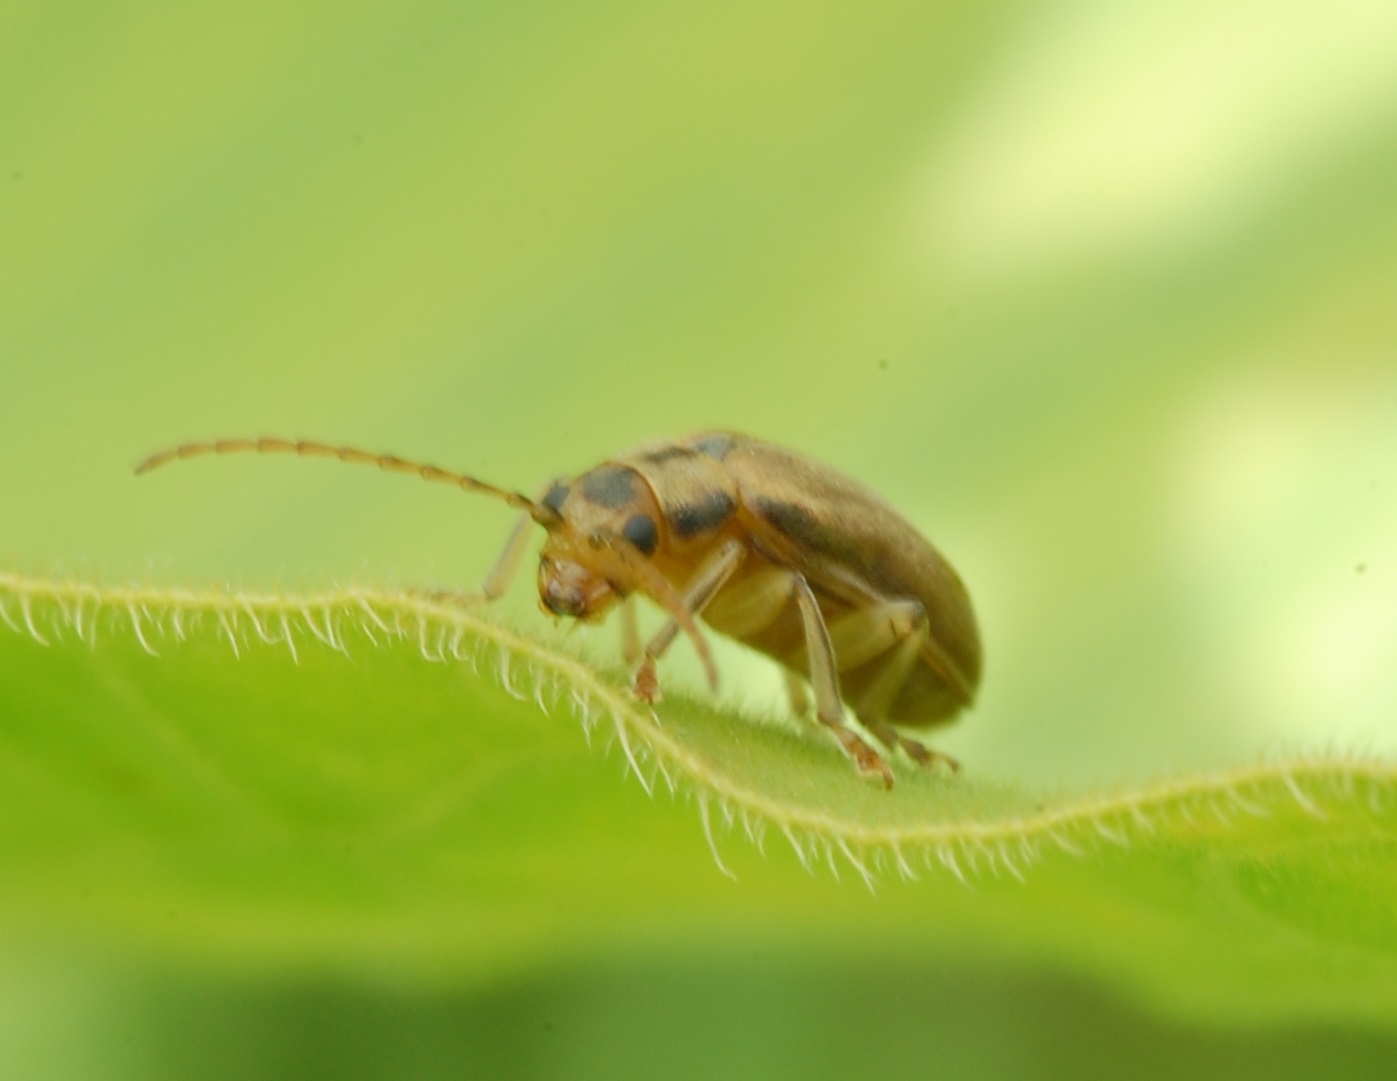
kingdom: Animalia
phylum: Arthropoda
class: Insecta
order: Coleoptera
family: Chrysomelidae
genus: Pyrrhalta
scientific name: Pyrrhalta viburni
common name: Guelder-rose leaf beetle
